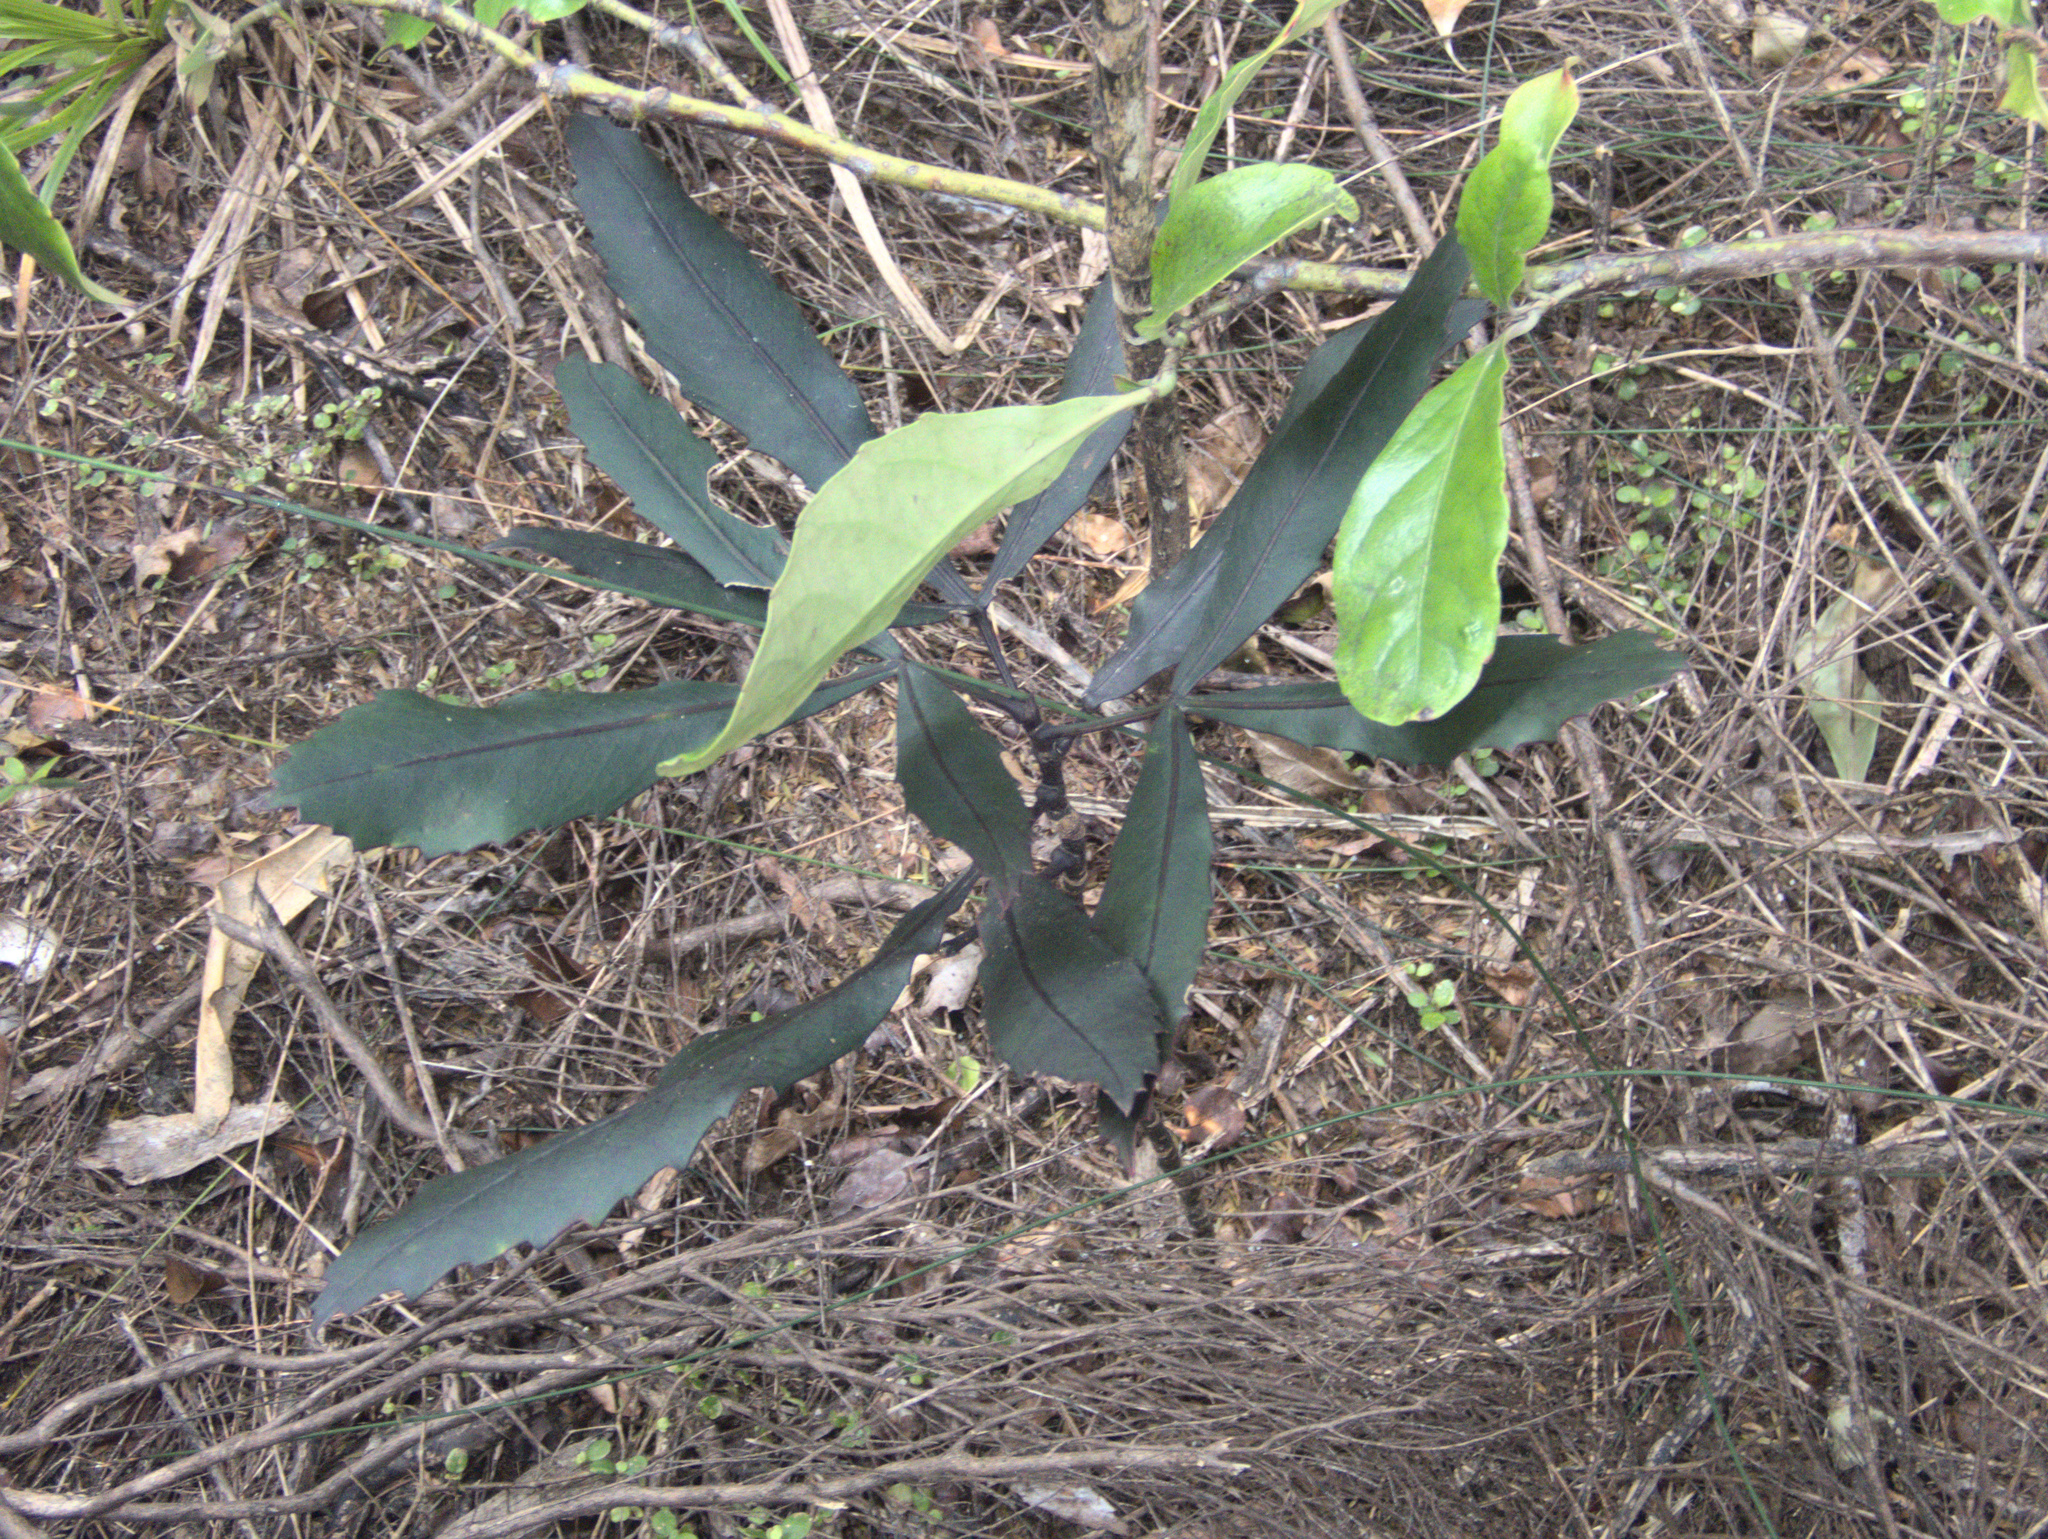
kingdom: Plantae
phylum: Tracheophyta
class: Magnoliopsida
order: Apiales
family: Araliaceae
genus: Pseudopanax
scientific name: Pseudopanax
